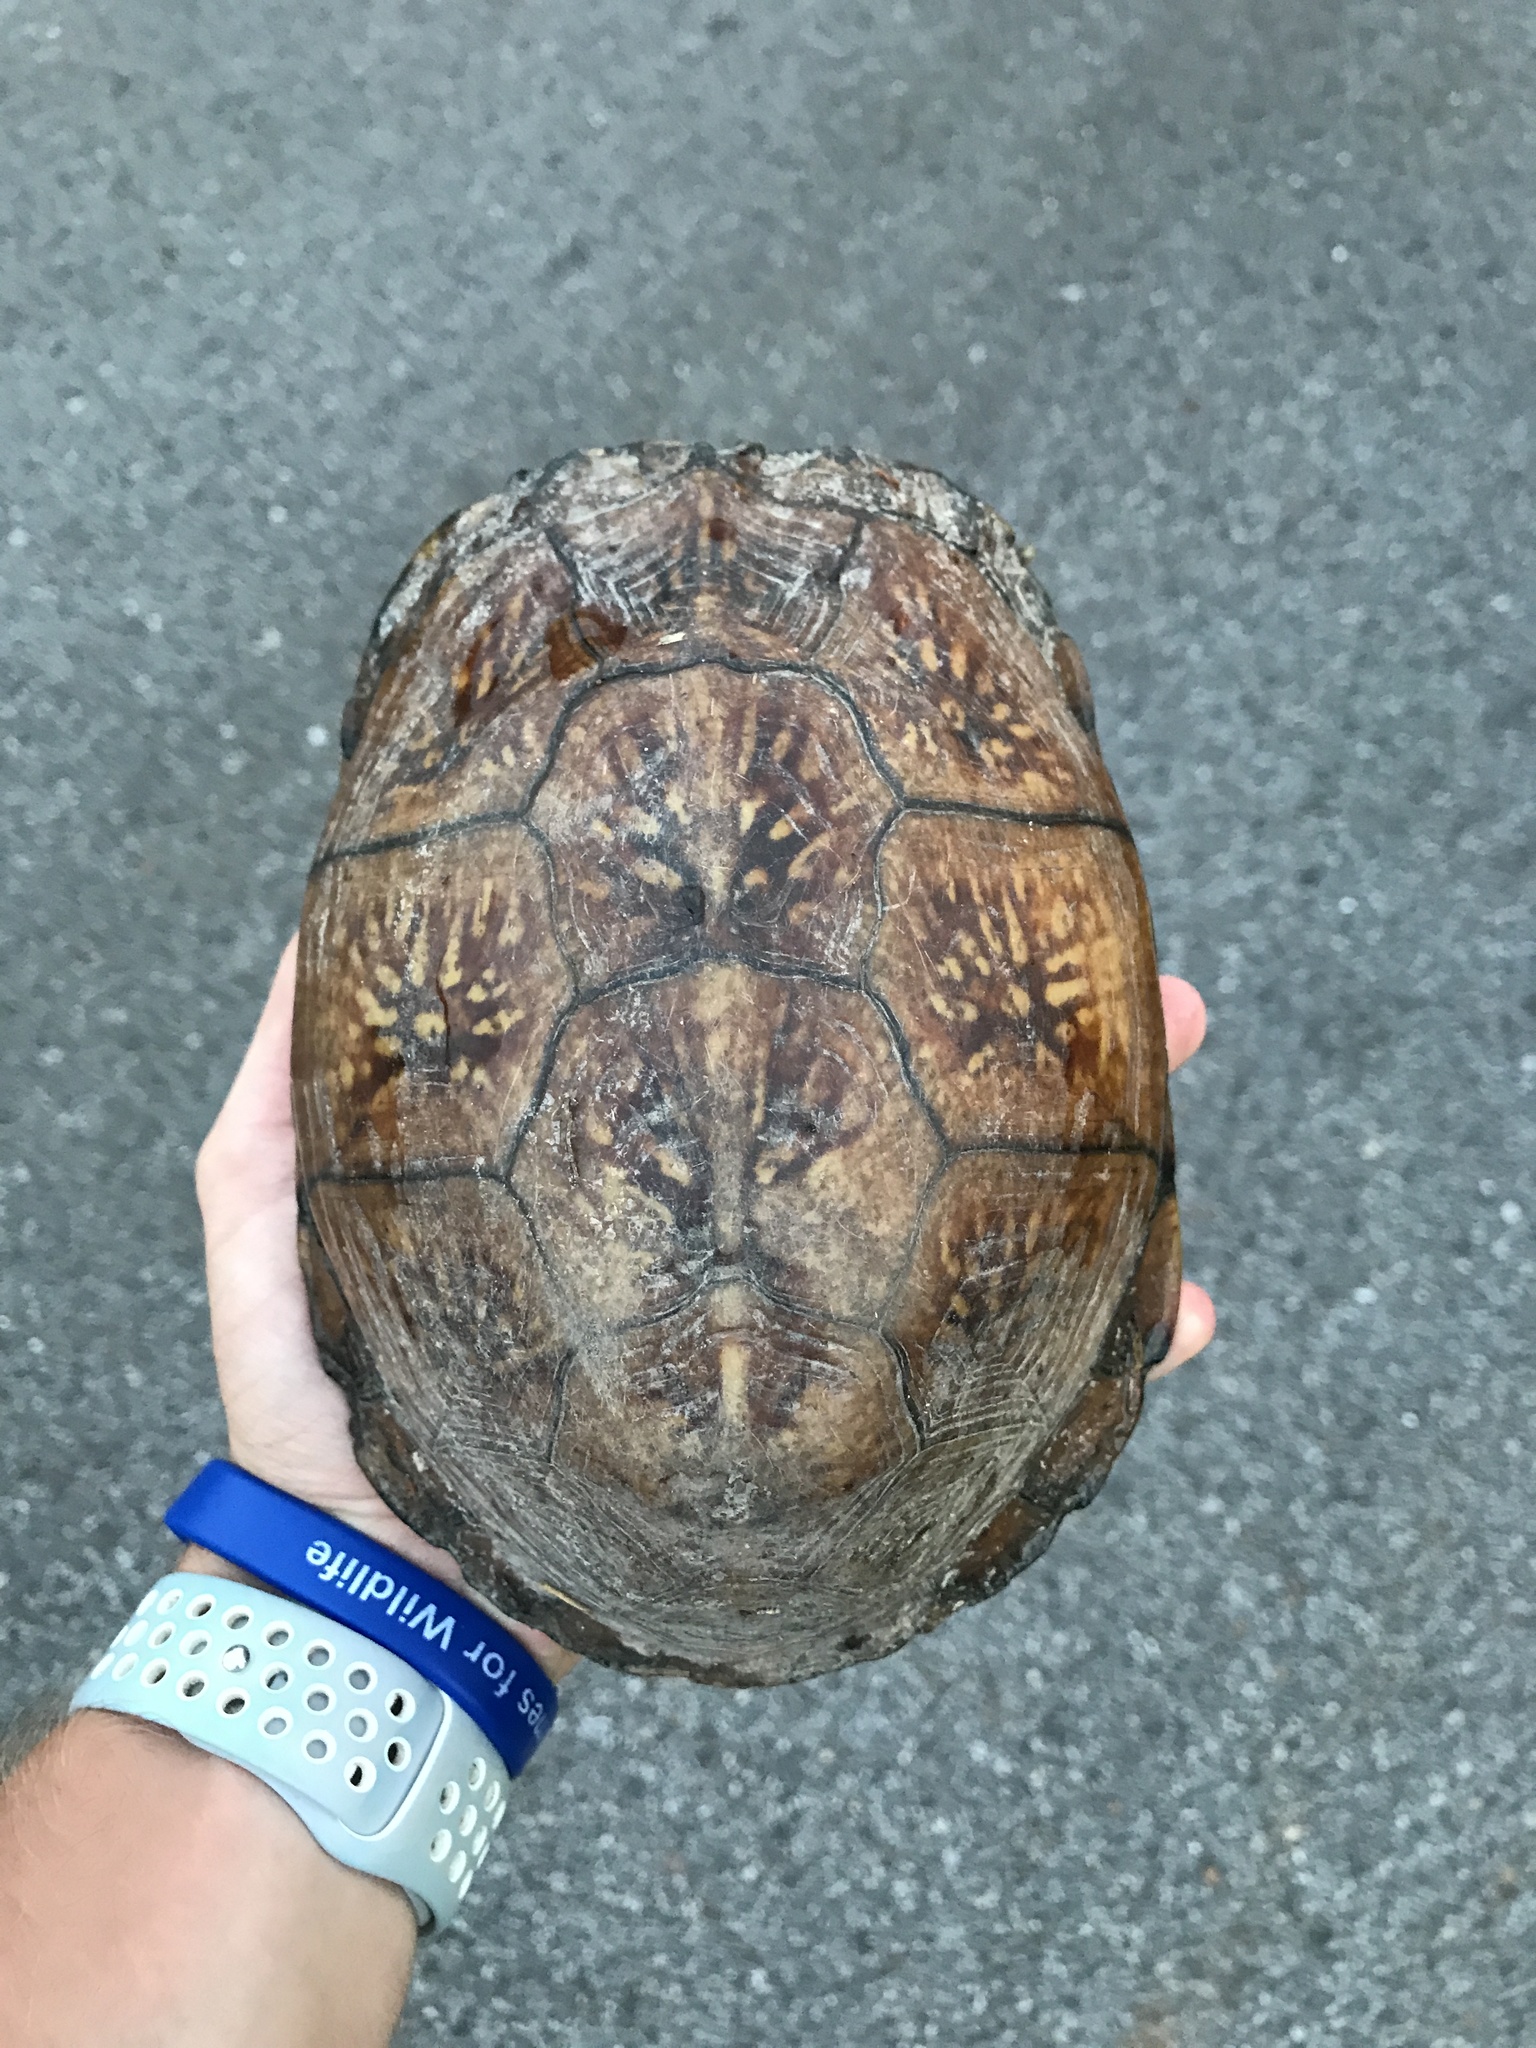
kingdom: Animalia
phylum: Chordata
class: Testudines
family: Emydidae
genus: Terrapene
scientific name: Terrapene carolina
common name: Common box turtle
